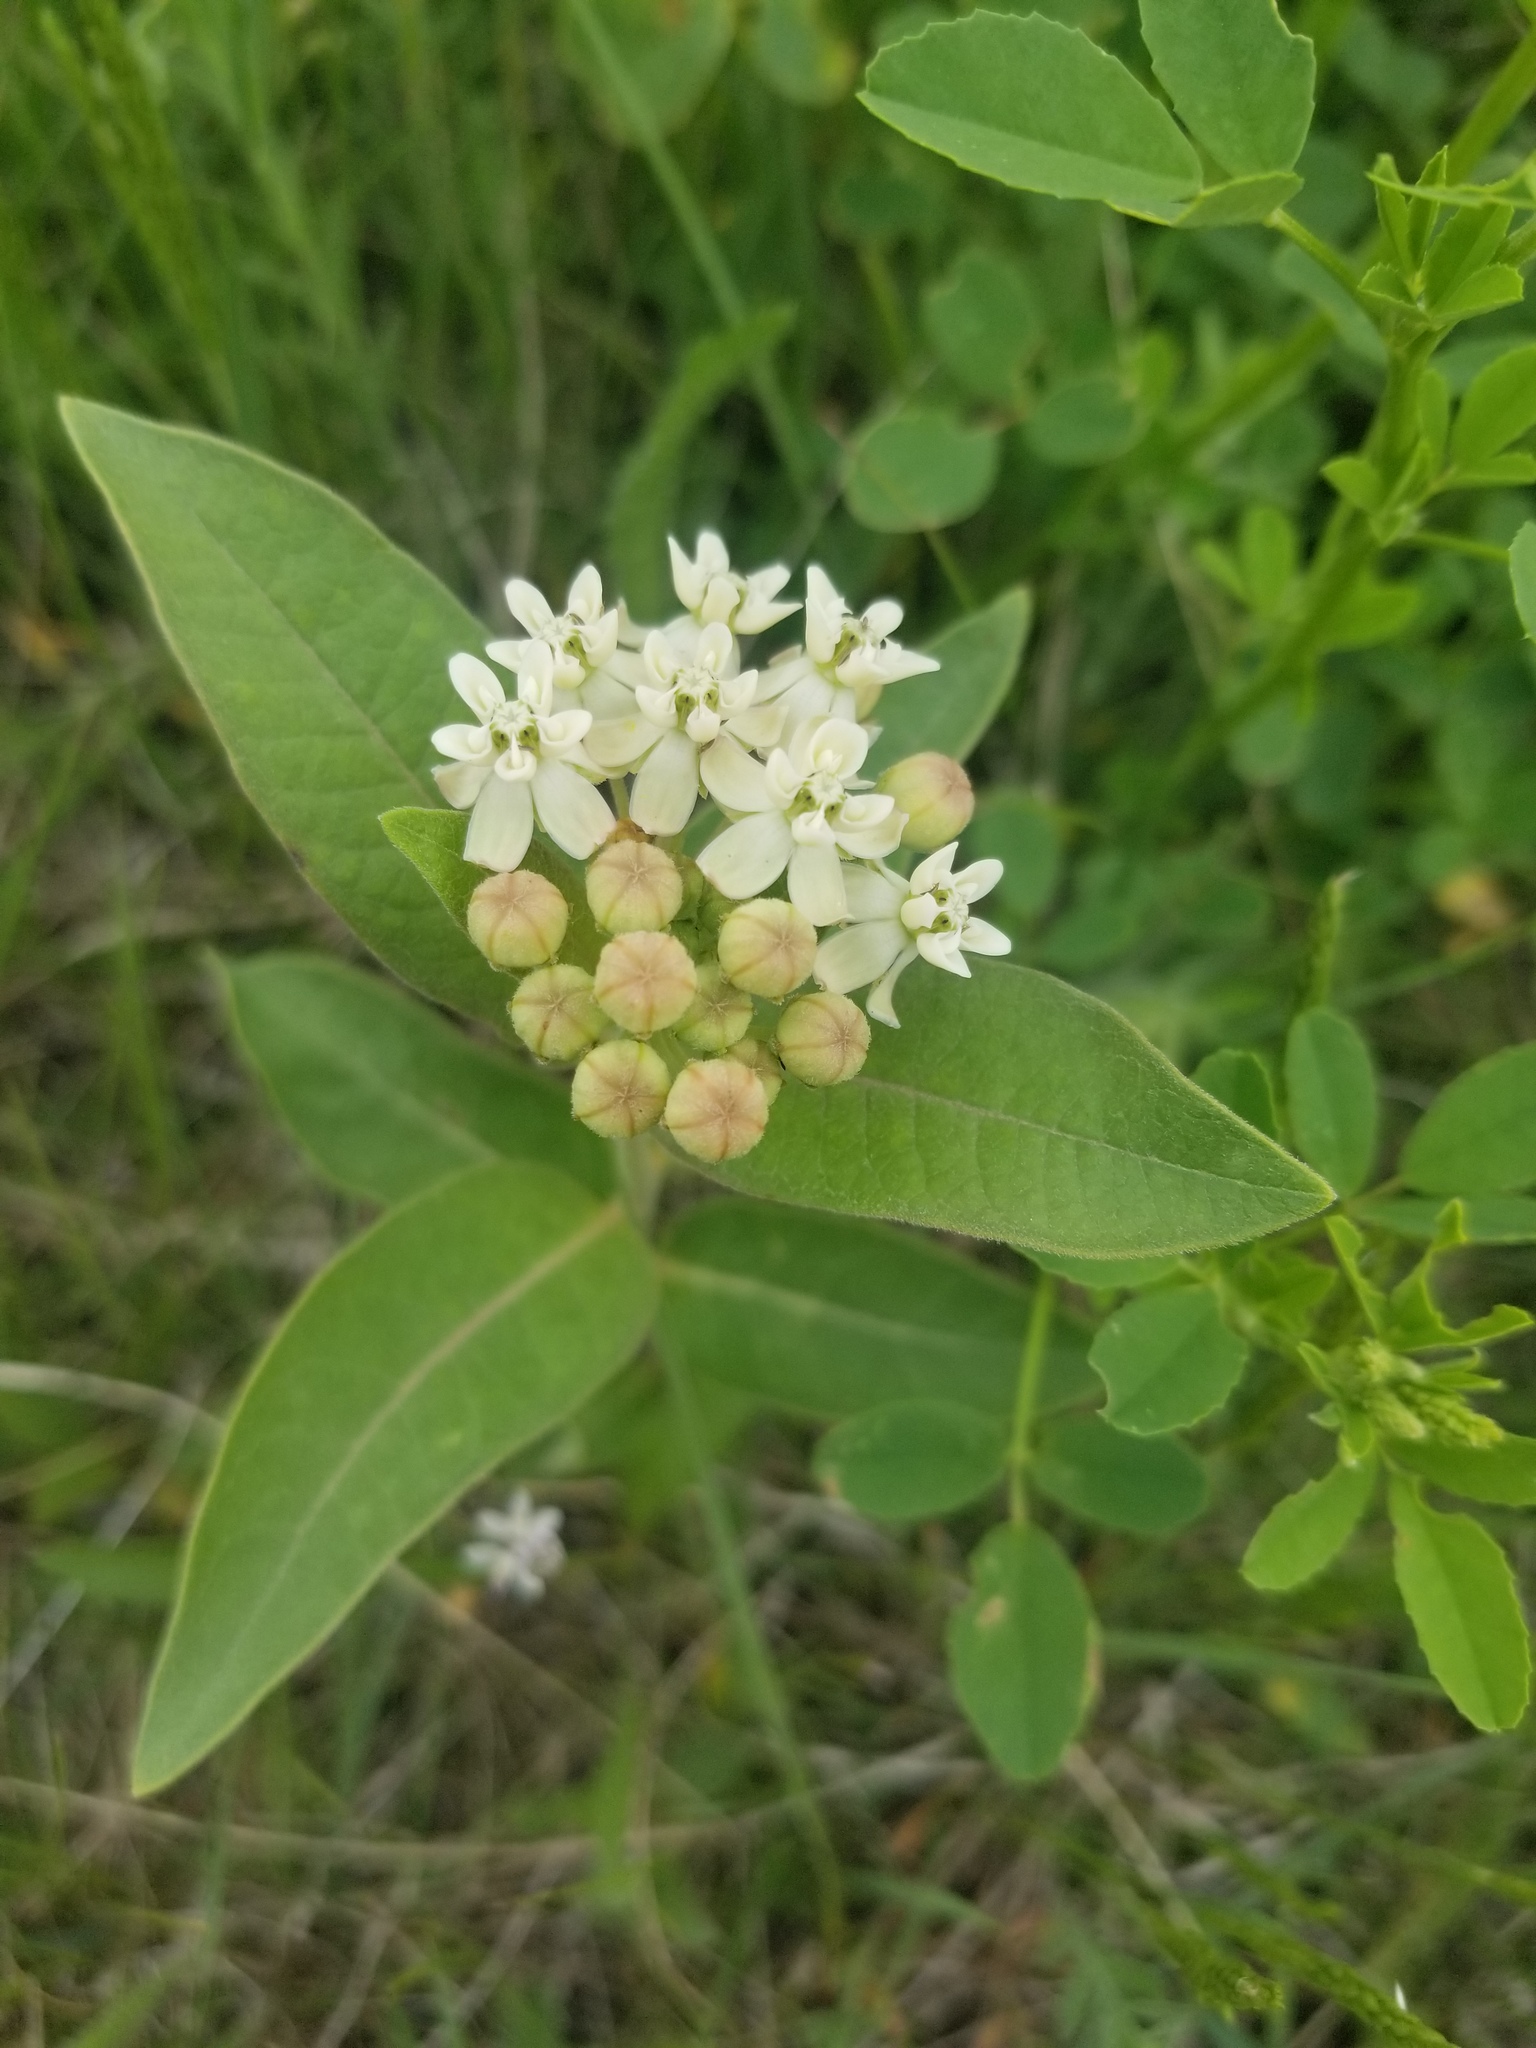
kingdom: Plantae
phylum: Tracheophyta
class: Magnoliopsida
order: Gentianales
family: Apocynaceae
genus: Asclepias
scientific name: Asclepias ovalifolia
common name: Dwarf milkweed
